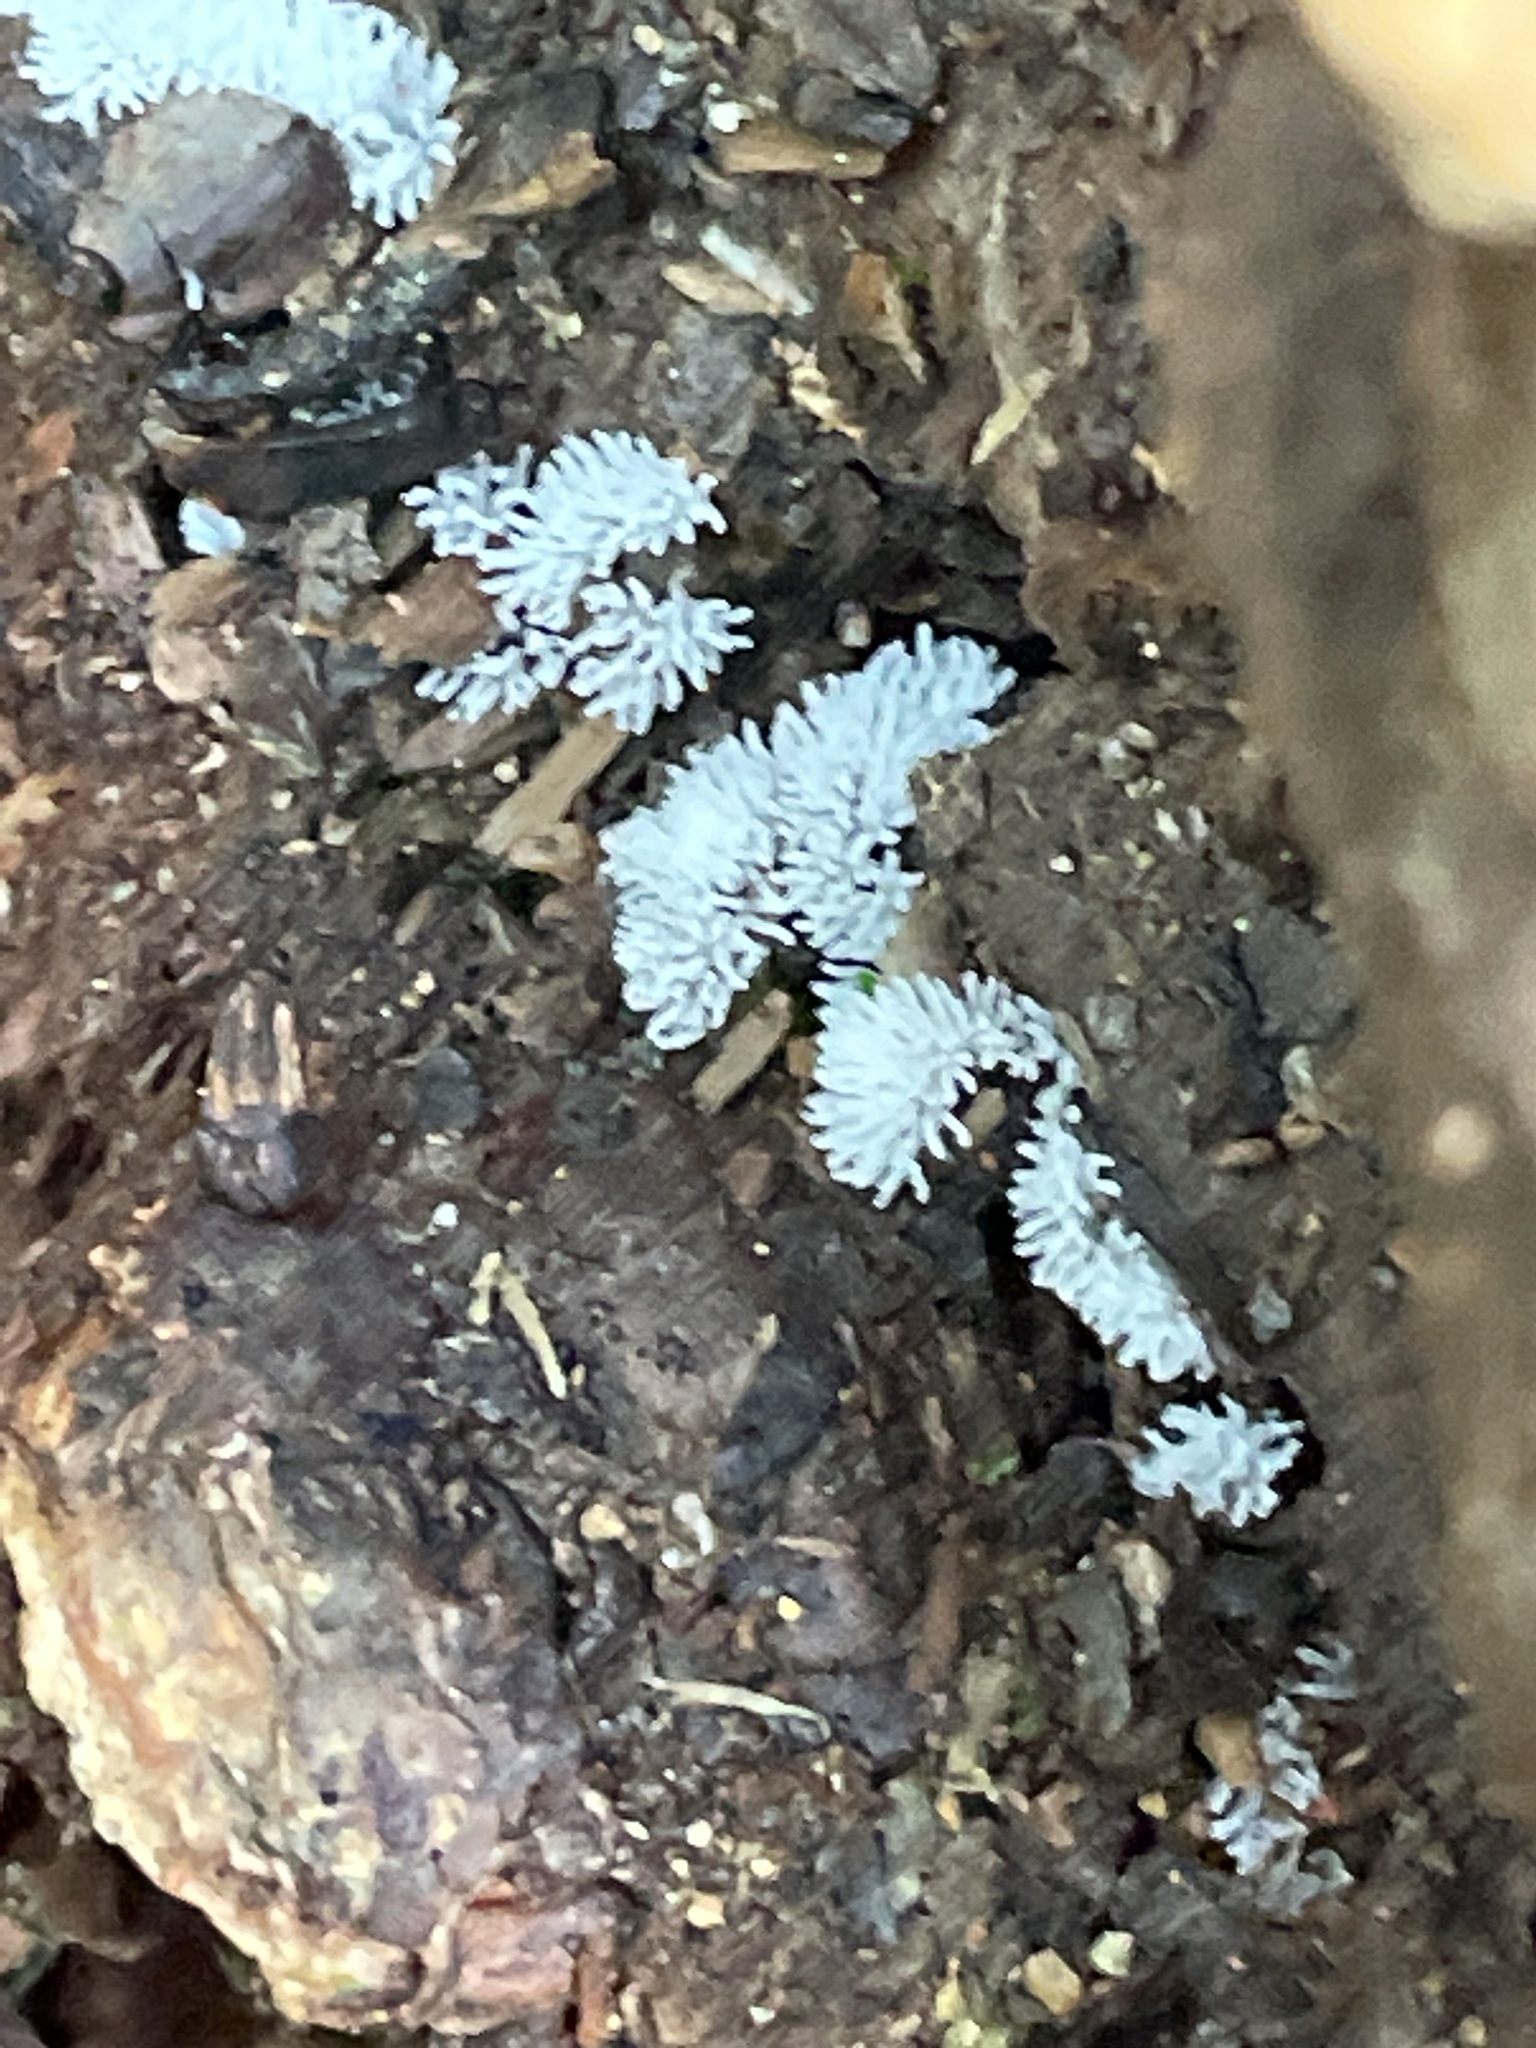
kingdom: Protozoa
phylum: Mycetozoa
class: Protosteliomycetes
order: Ceratiomyxales
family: Ceratiomyxaceae
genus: Ceratiomyxa
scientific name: Ceratiomyxa fruticulosa
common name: Honeycomb coral slime mold
